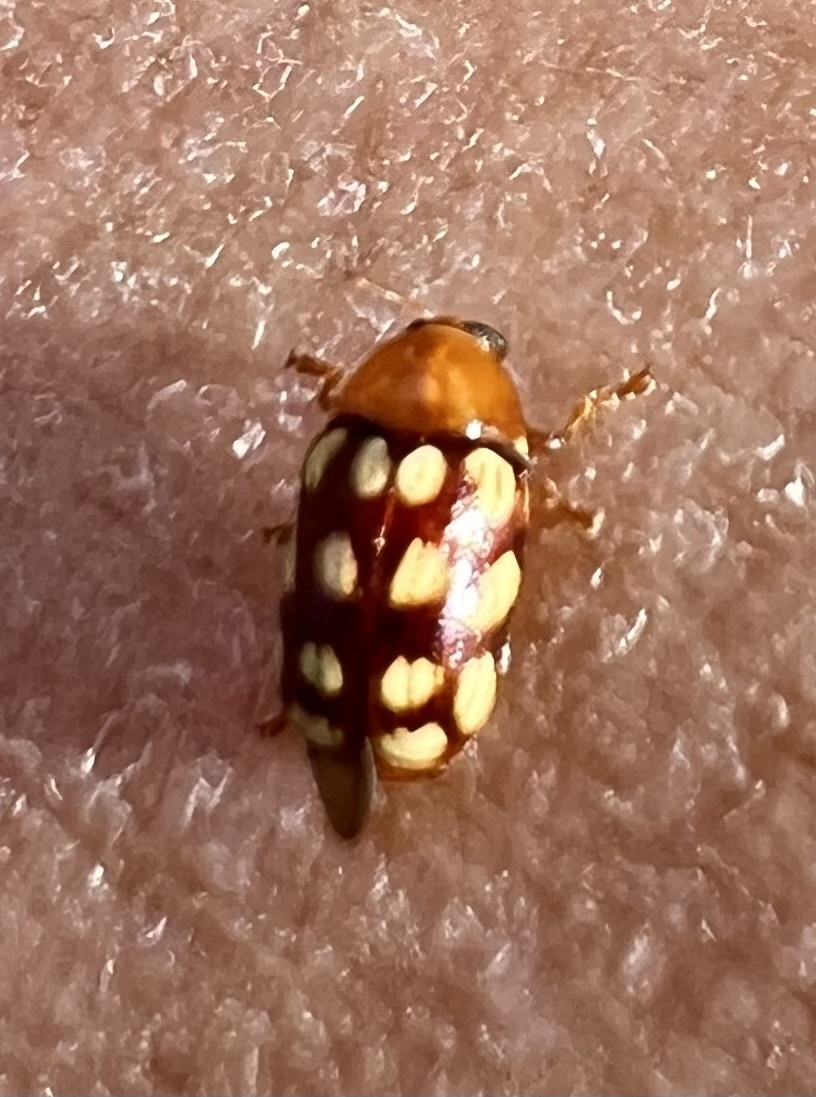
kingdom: Animalia
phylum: Arthropoda
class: Insecta
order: Coleoptera
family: Chrysomelidae
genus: Cryptocephalus
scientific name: Cryptocephalus guttulatus
